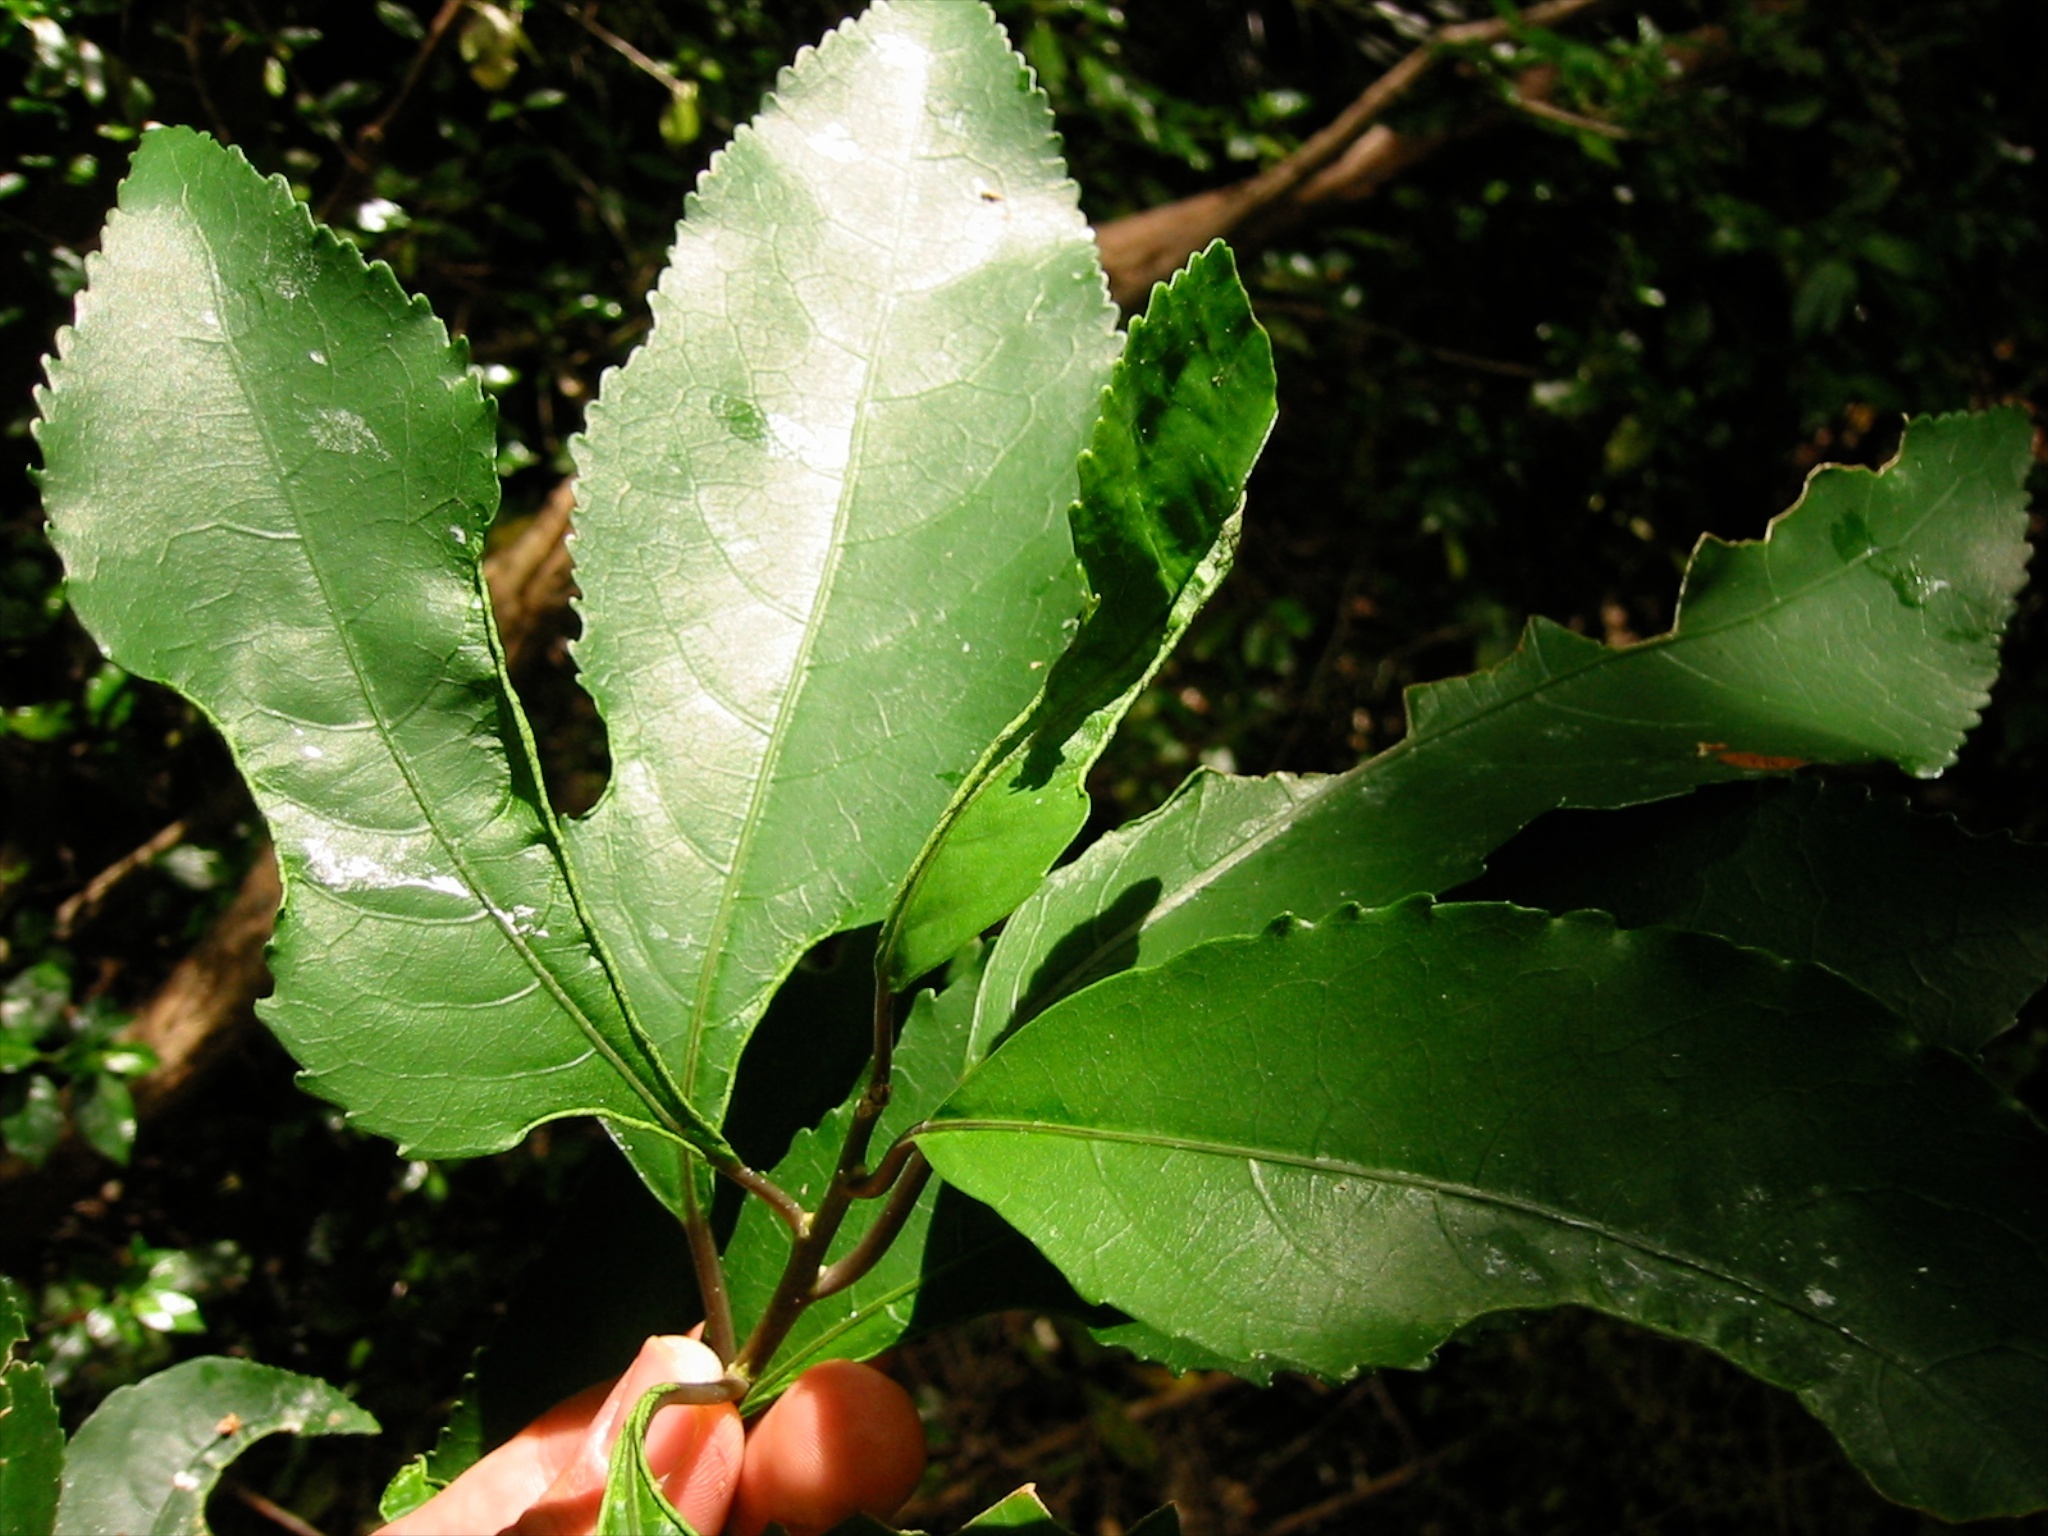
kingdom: Animalia
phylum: Arthropoda
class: Arachnida
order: Trombidiformes
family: Eriophyidae
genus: Aceria
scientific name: Aceria
